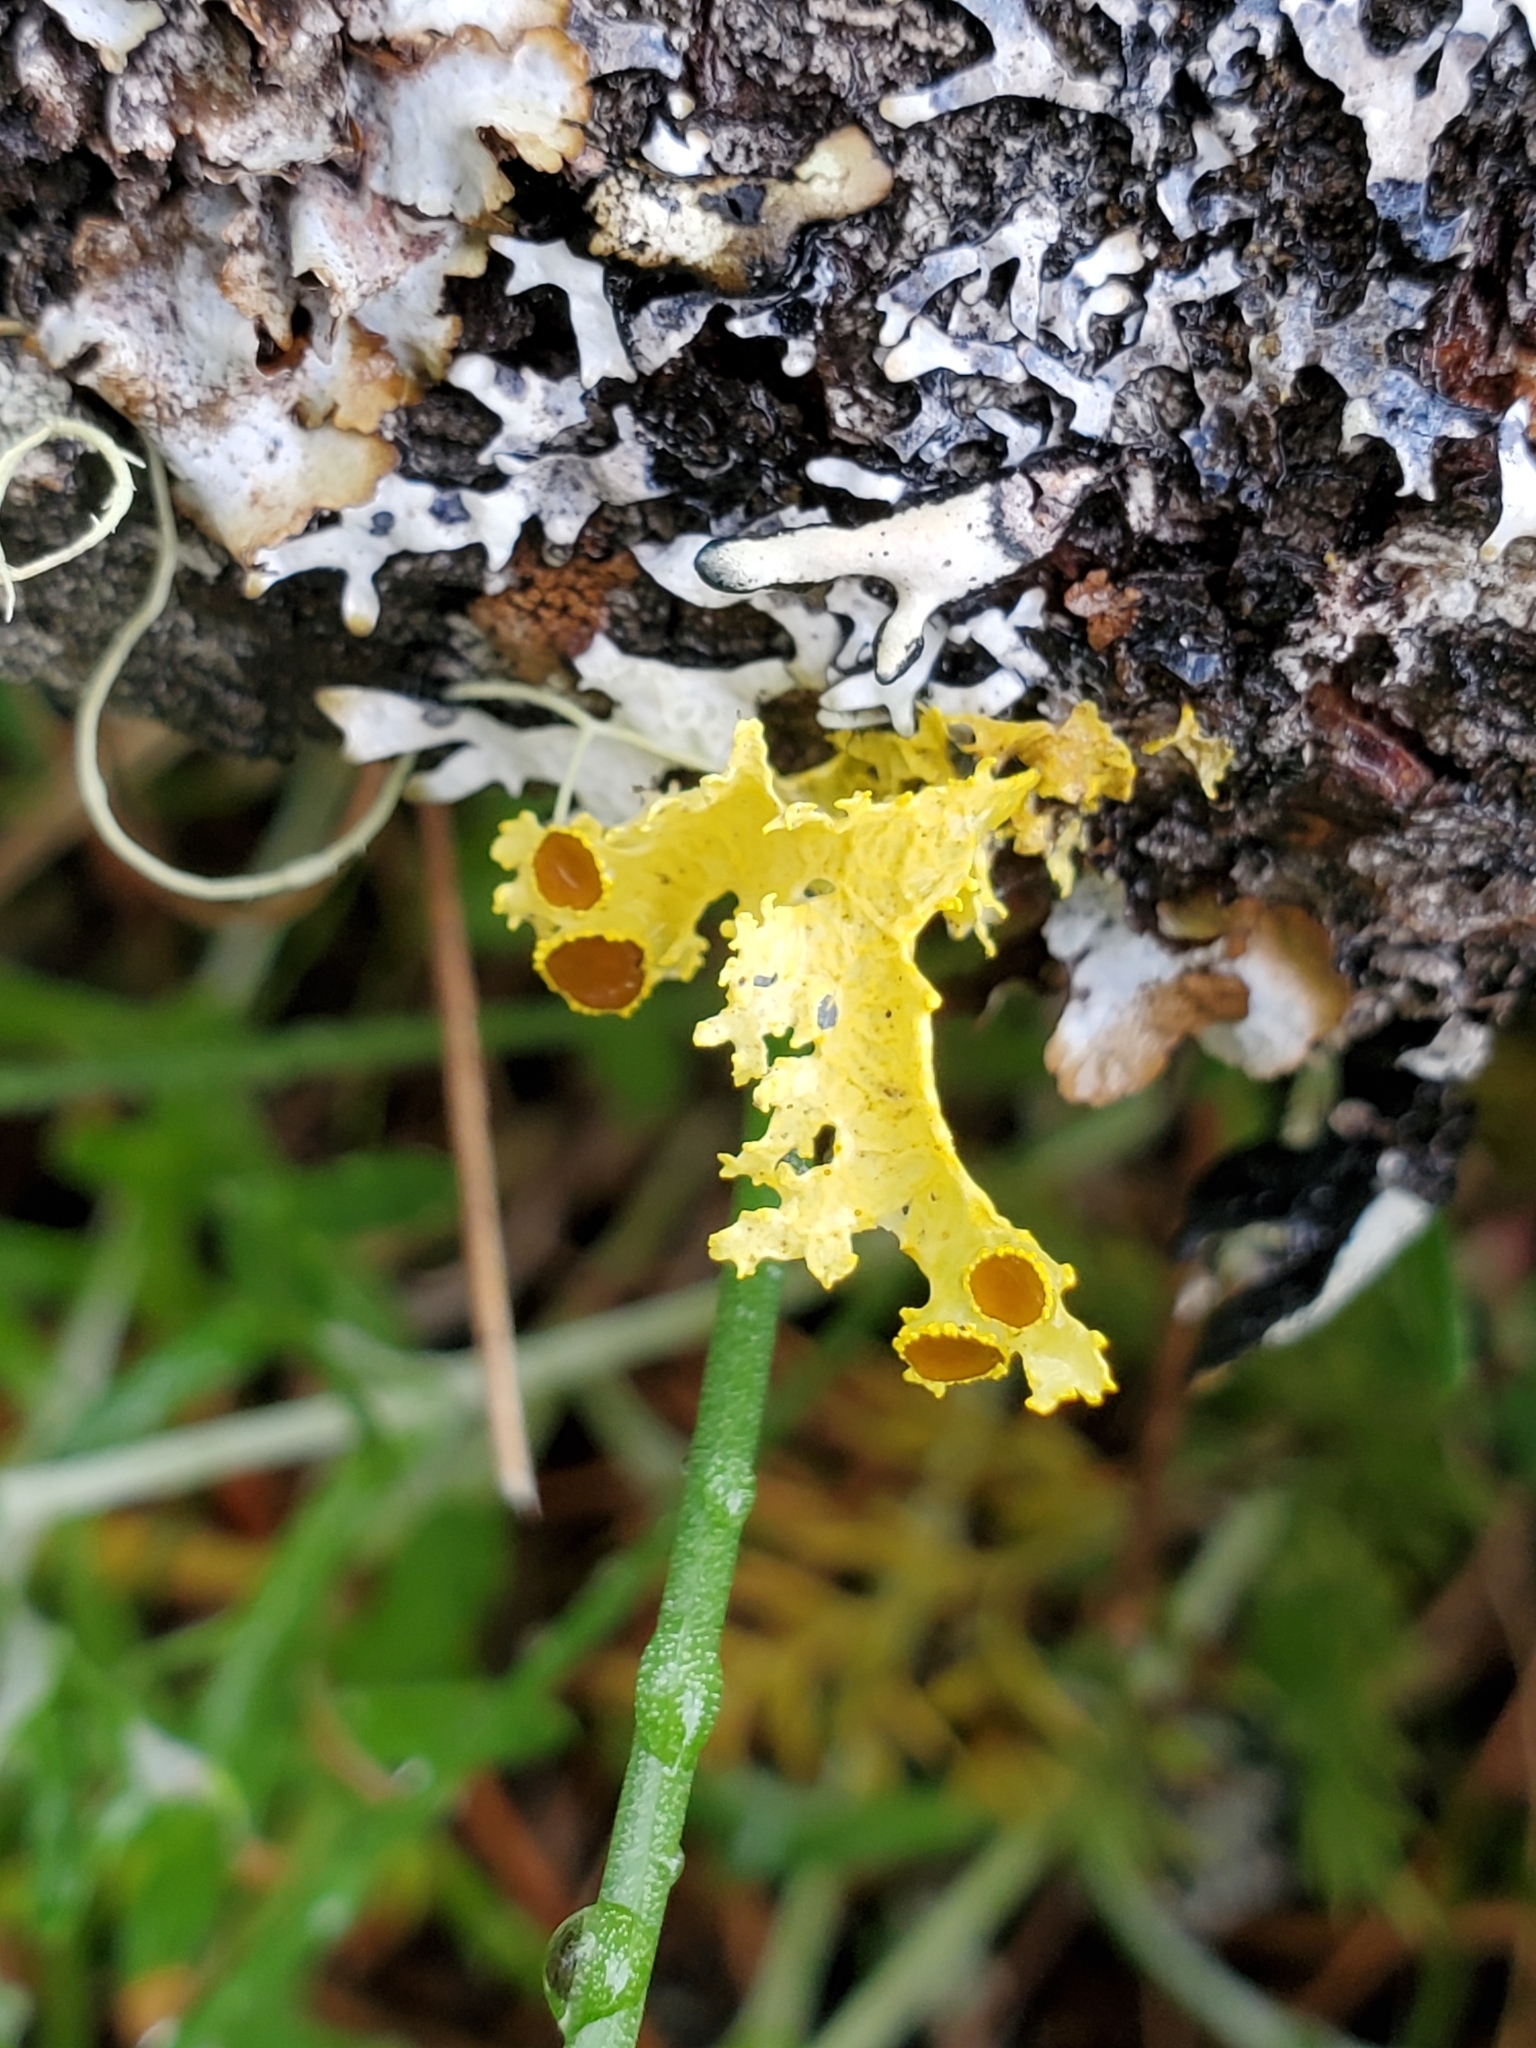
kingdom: Fungi
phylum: Ascomycota
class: Lecanoromycetes
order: Lecanorales
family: Parmeliaceae
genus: Vulpicida
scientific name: Vulpicida canadensis
